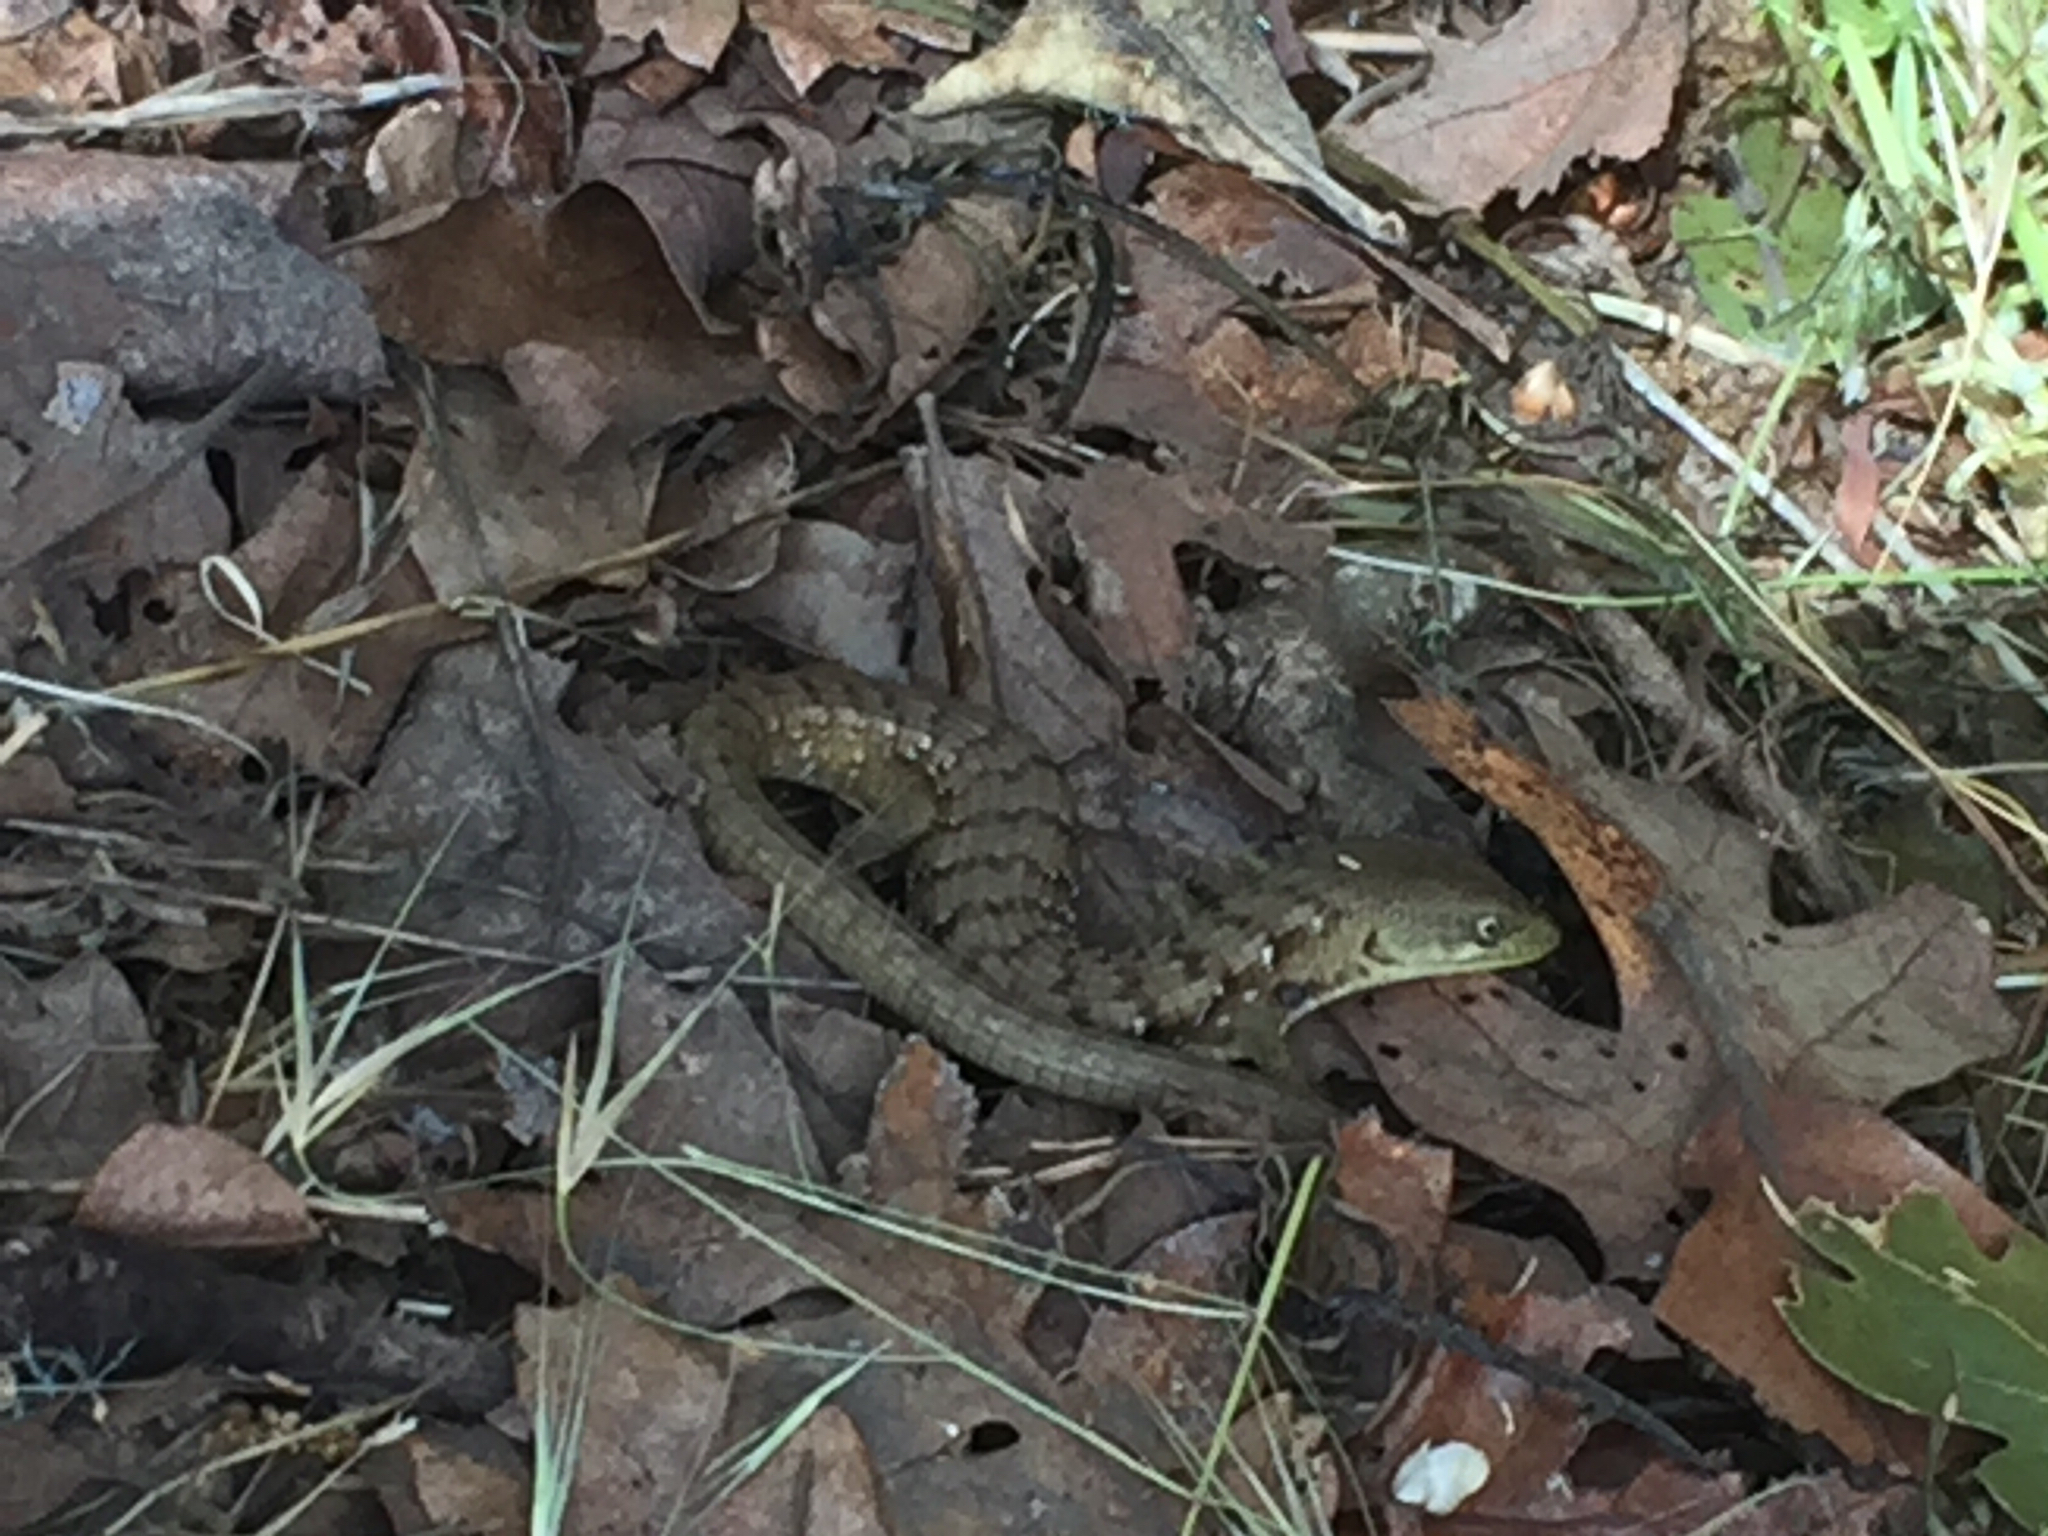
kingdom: Animalia
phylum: Chordata
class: Squamata
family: Anguidae
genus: Elgaria
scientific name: Elgaria multicarinata
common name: Southern alligator lizard
